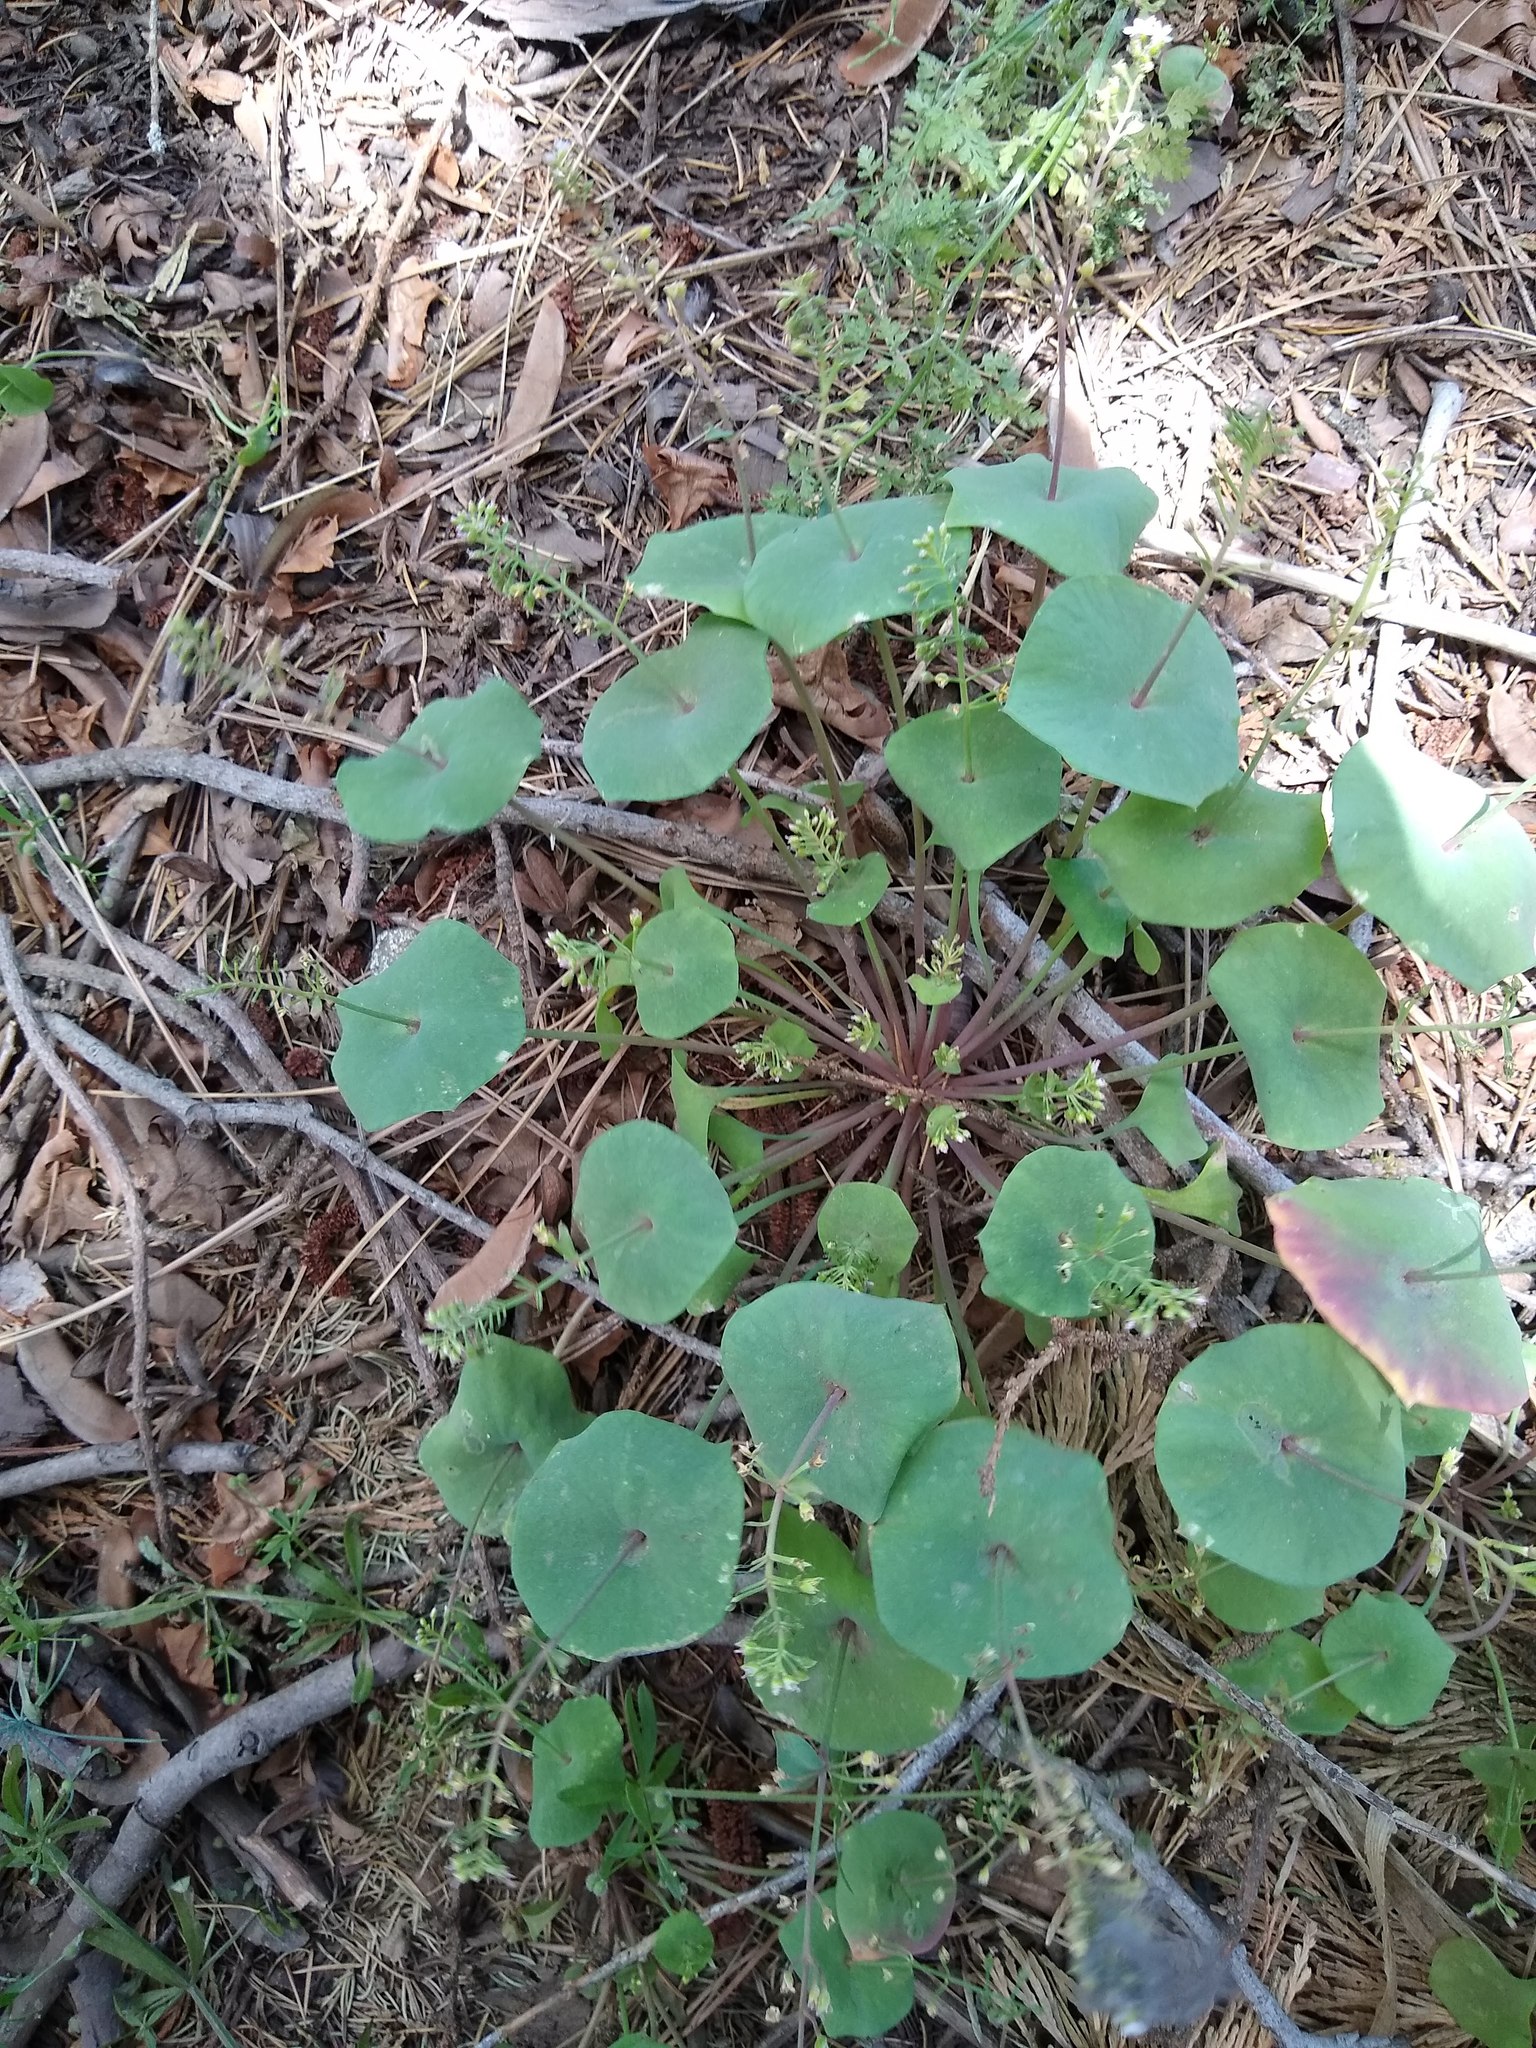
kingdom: Plantae
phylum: Tracheophyta
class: Magnoliopsida
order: Caryophyllales
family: Montiaceae
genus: Claytonia
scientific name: Claytonia perfoliata
